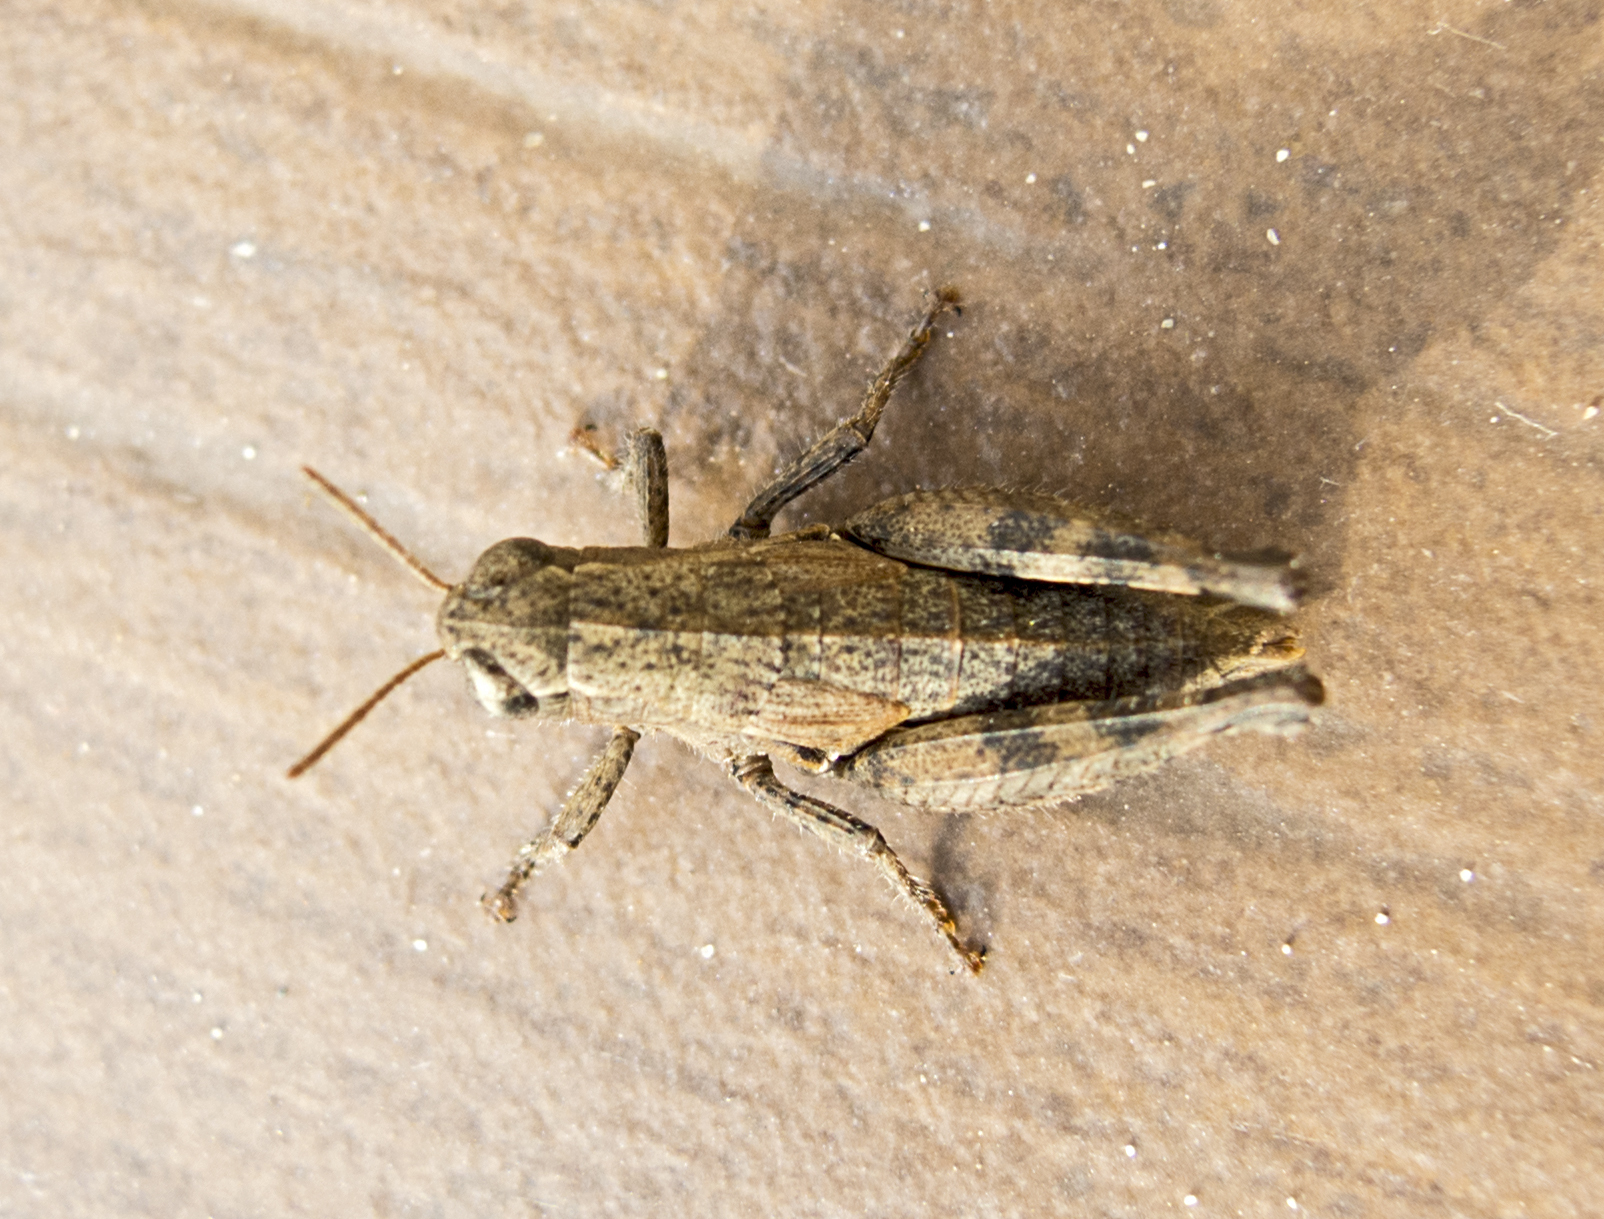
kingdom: Animalia
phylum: Arthropoda
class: Insecta
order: Orthoptera
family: Acrididae
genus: Pezotettix
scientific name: Pezotettix giornae
